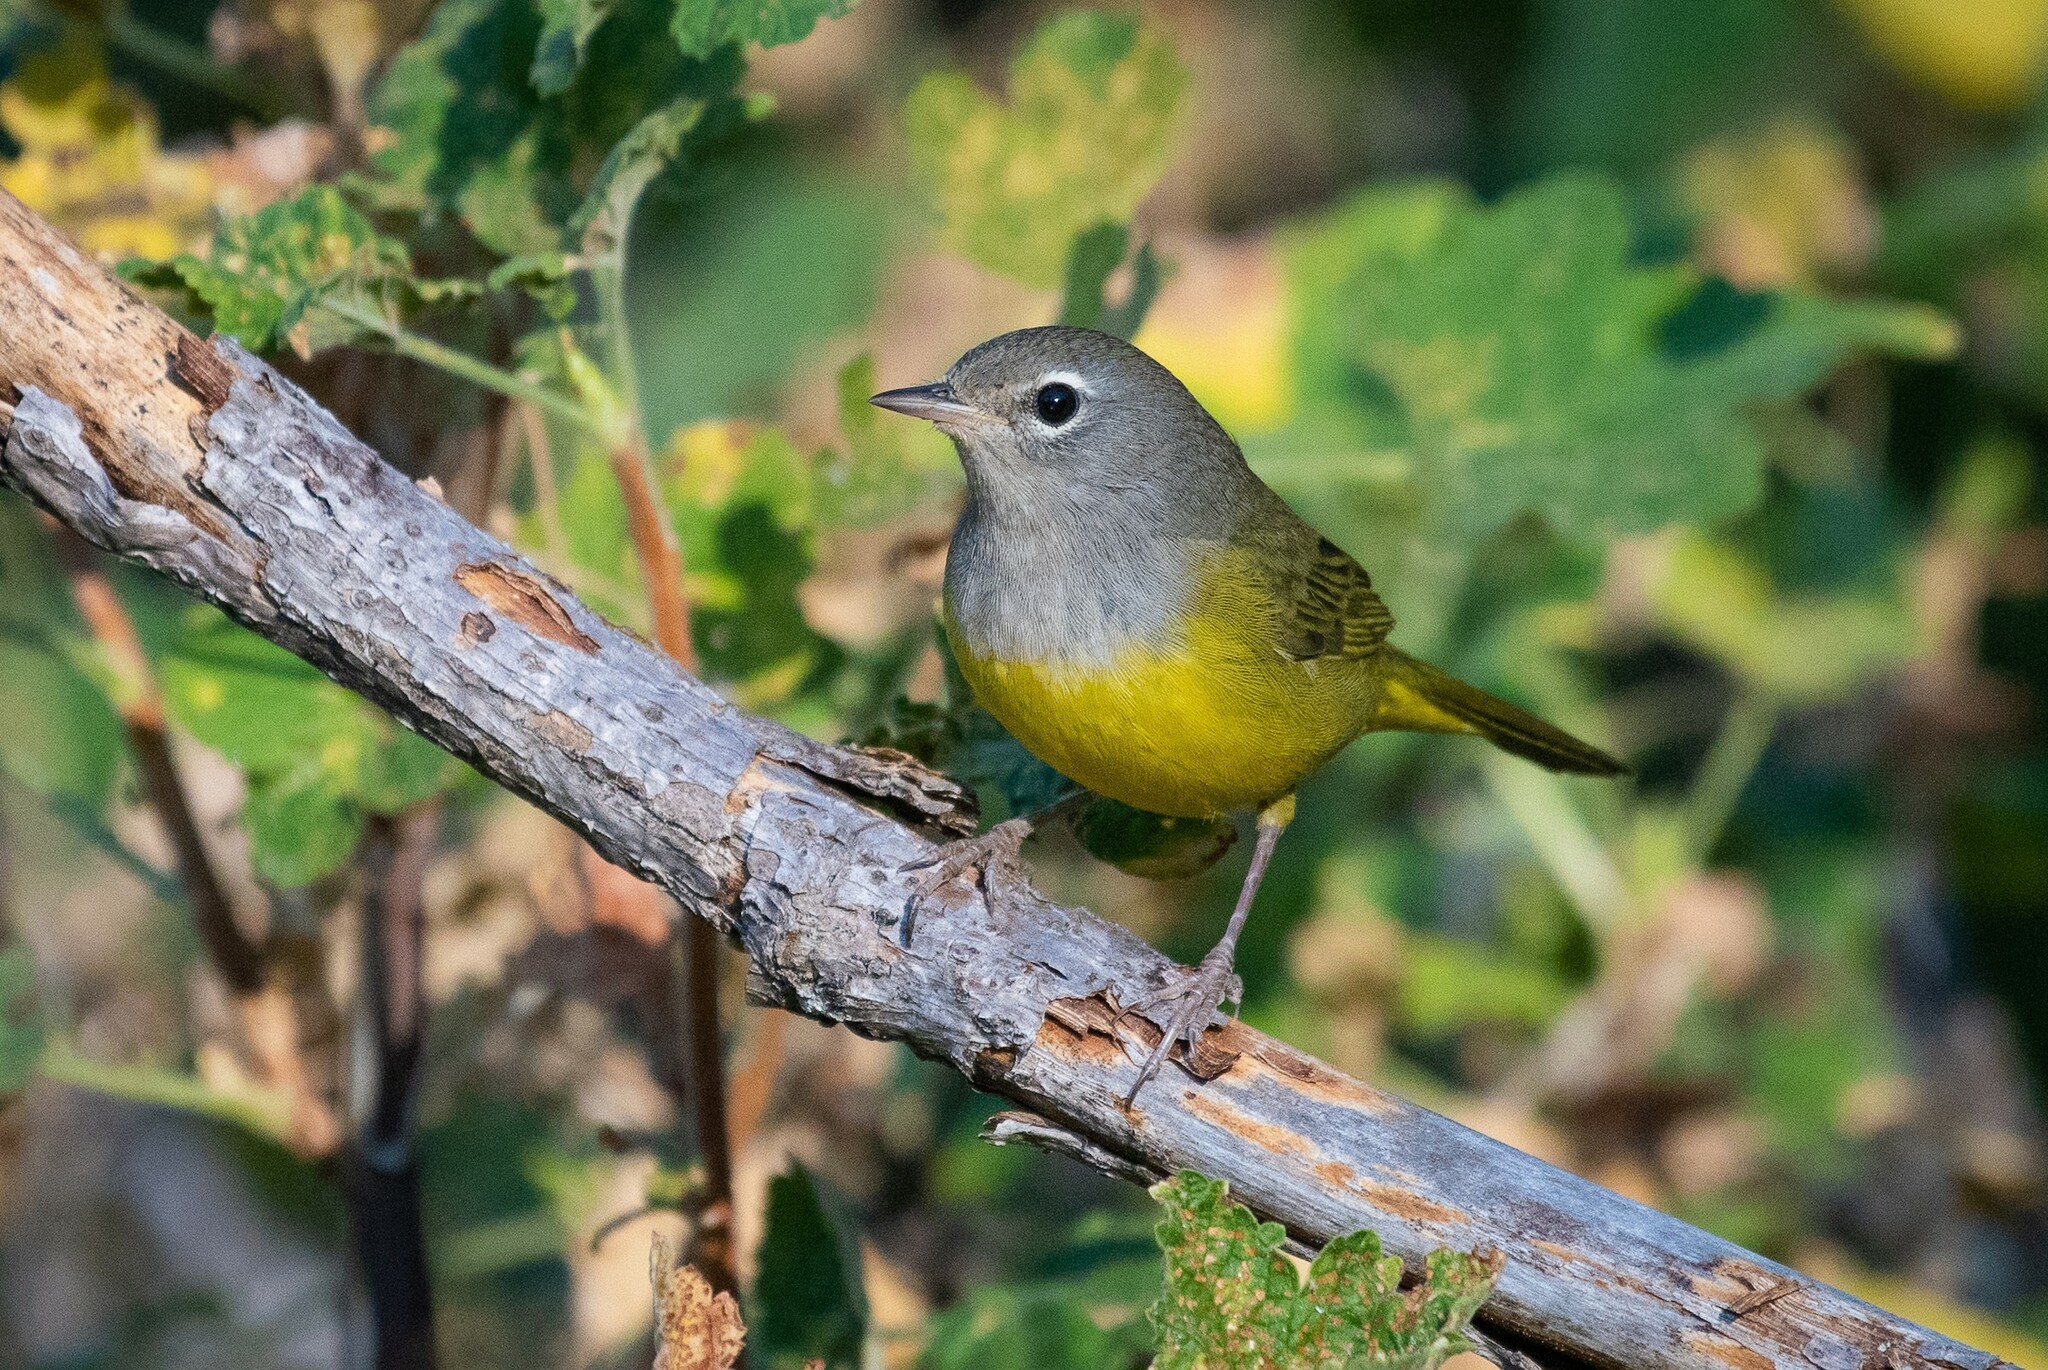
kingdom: Animalia
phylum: Chordata
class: Aves
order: Passeriformes
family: Parulidae
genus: Geothlypis
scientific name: Geothlypis tolmiei
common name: Macgillivray's warbler
